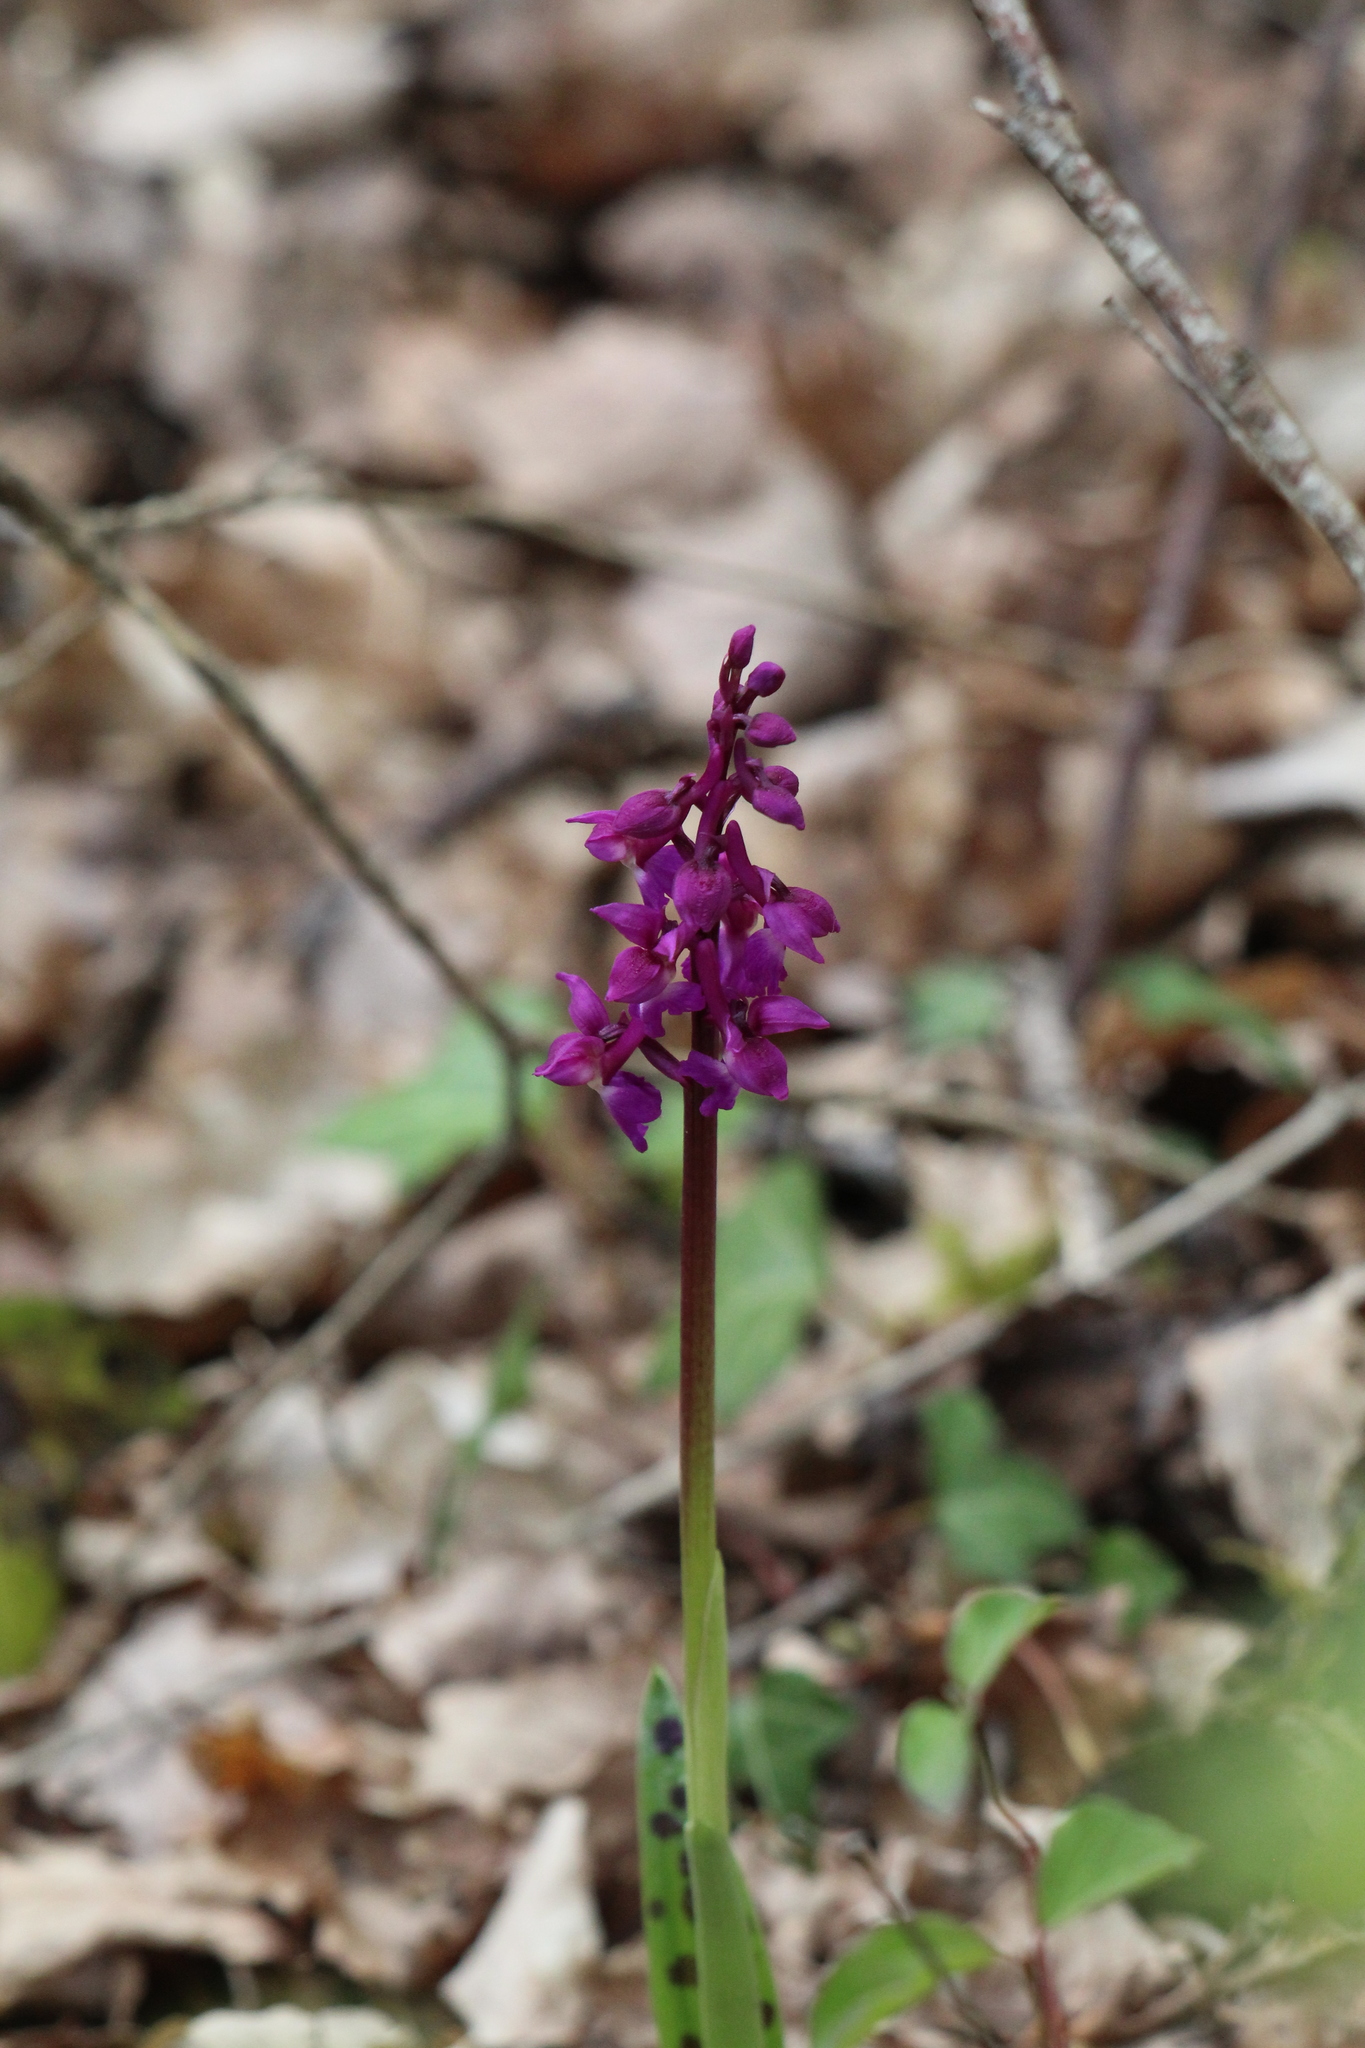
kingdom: Plantae
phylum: Tracheophyta
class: Liliopsida
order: Asparagales
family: Orchidaceae
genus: Orchis
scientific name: Orchis mascula
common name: Early-purple orchid
